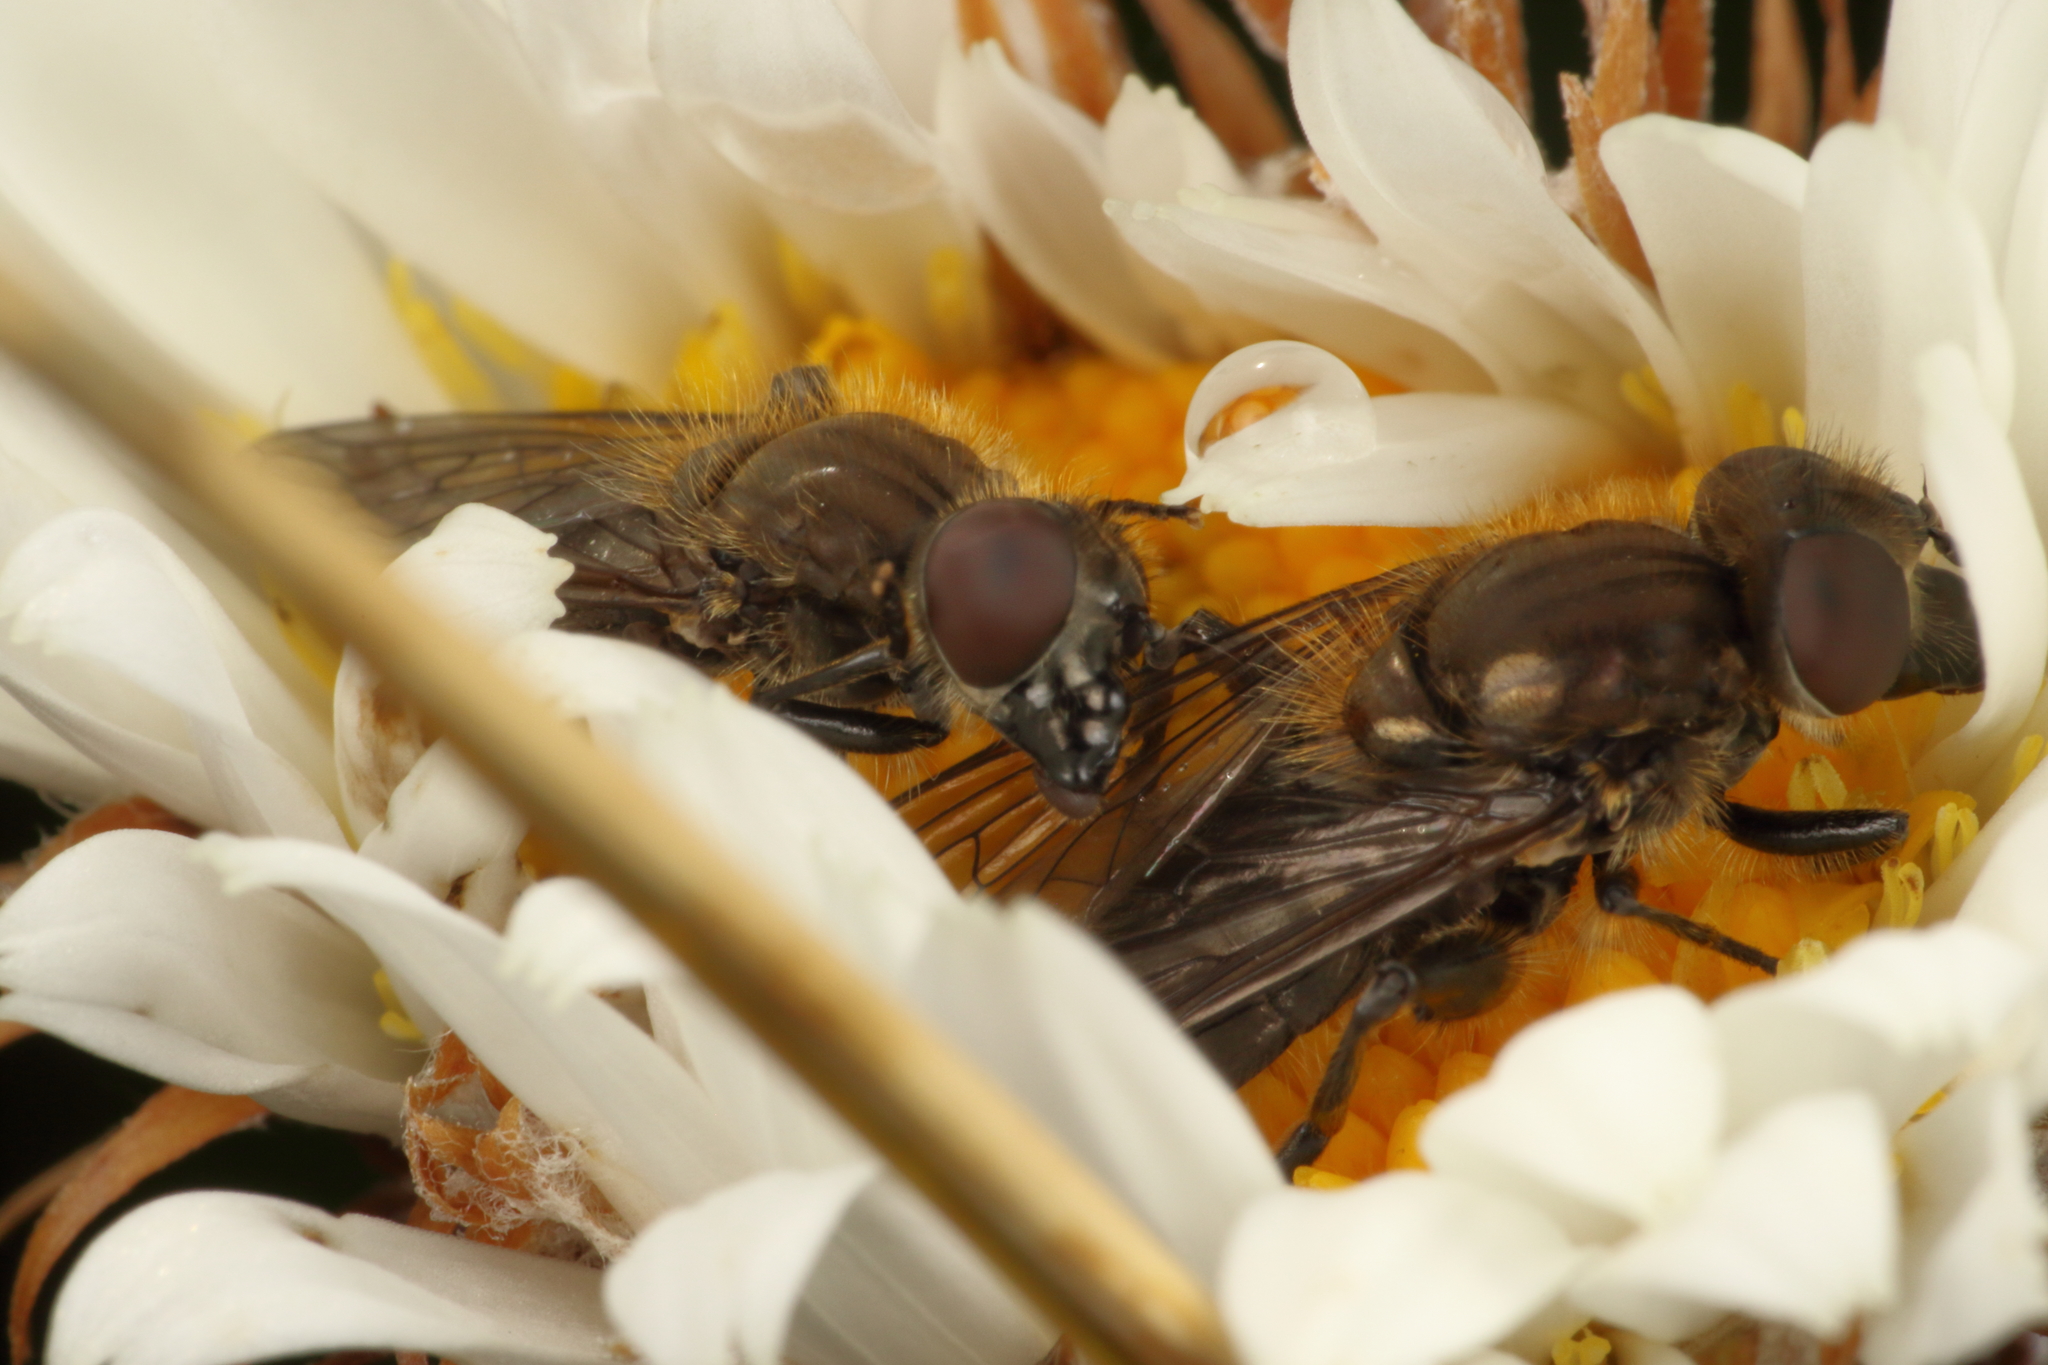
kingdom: Animalia
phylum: Arthropoda
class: Insecta
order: Diptera
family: Syrphidae
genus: Helophilus
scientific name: Helophilus montanus
